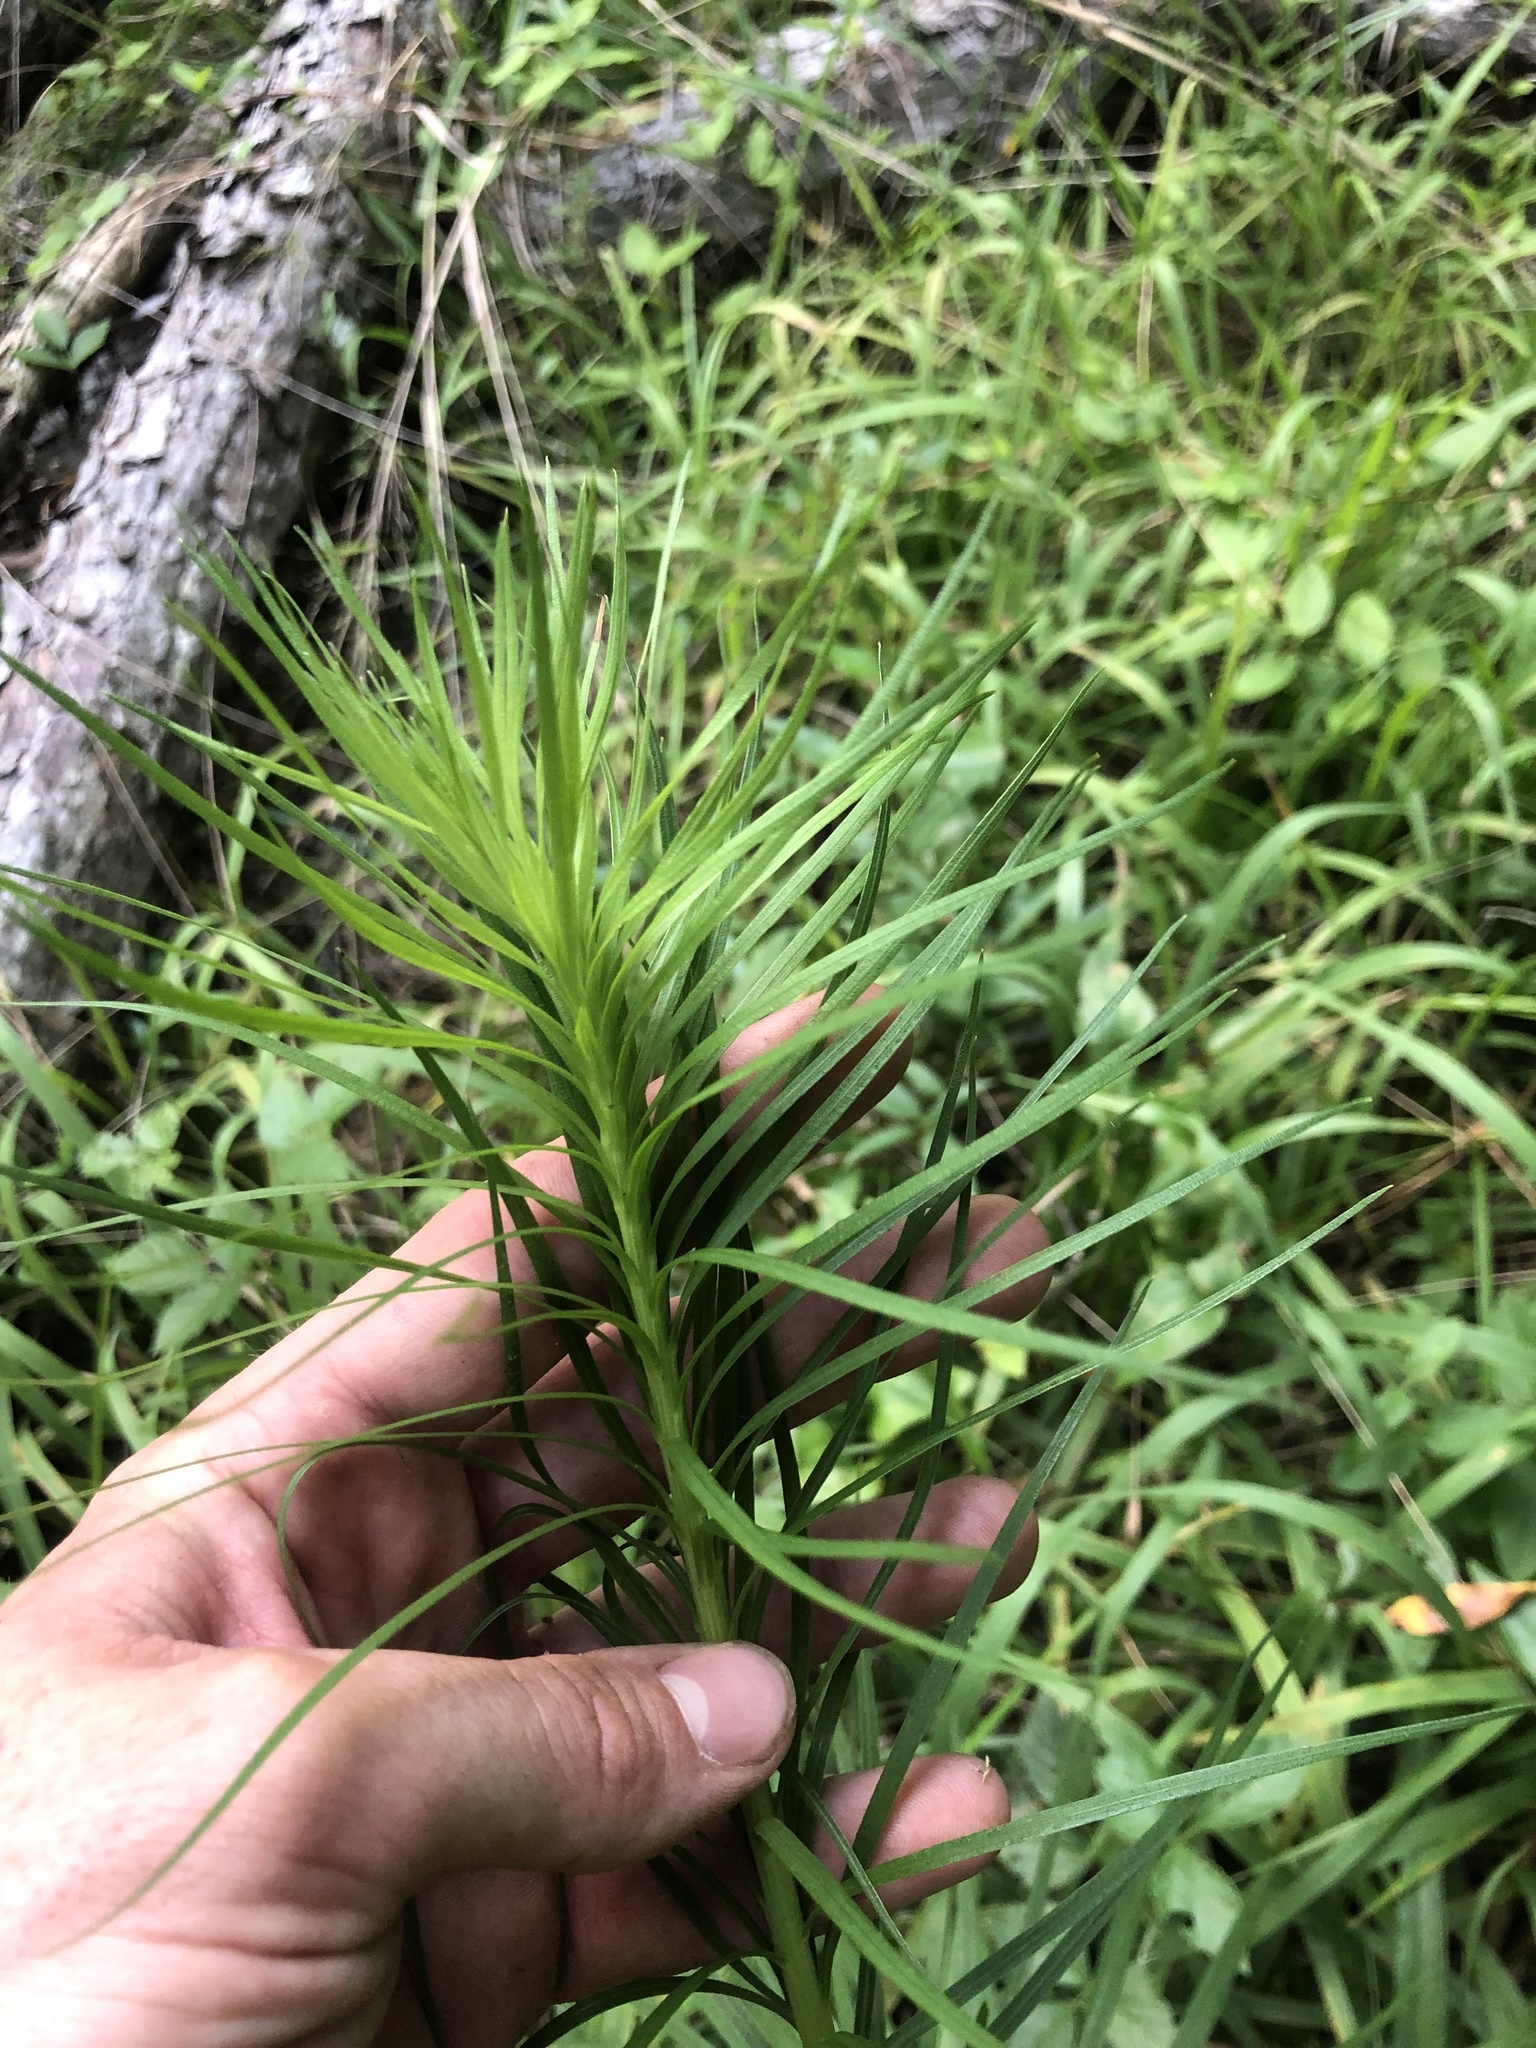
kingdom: Plantae
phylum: Tracheophyta
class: Magnoliopsida
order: Asterales
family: Asteraceae
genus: Liatris
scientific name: Liatris spicata
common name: Florist gayfeather
